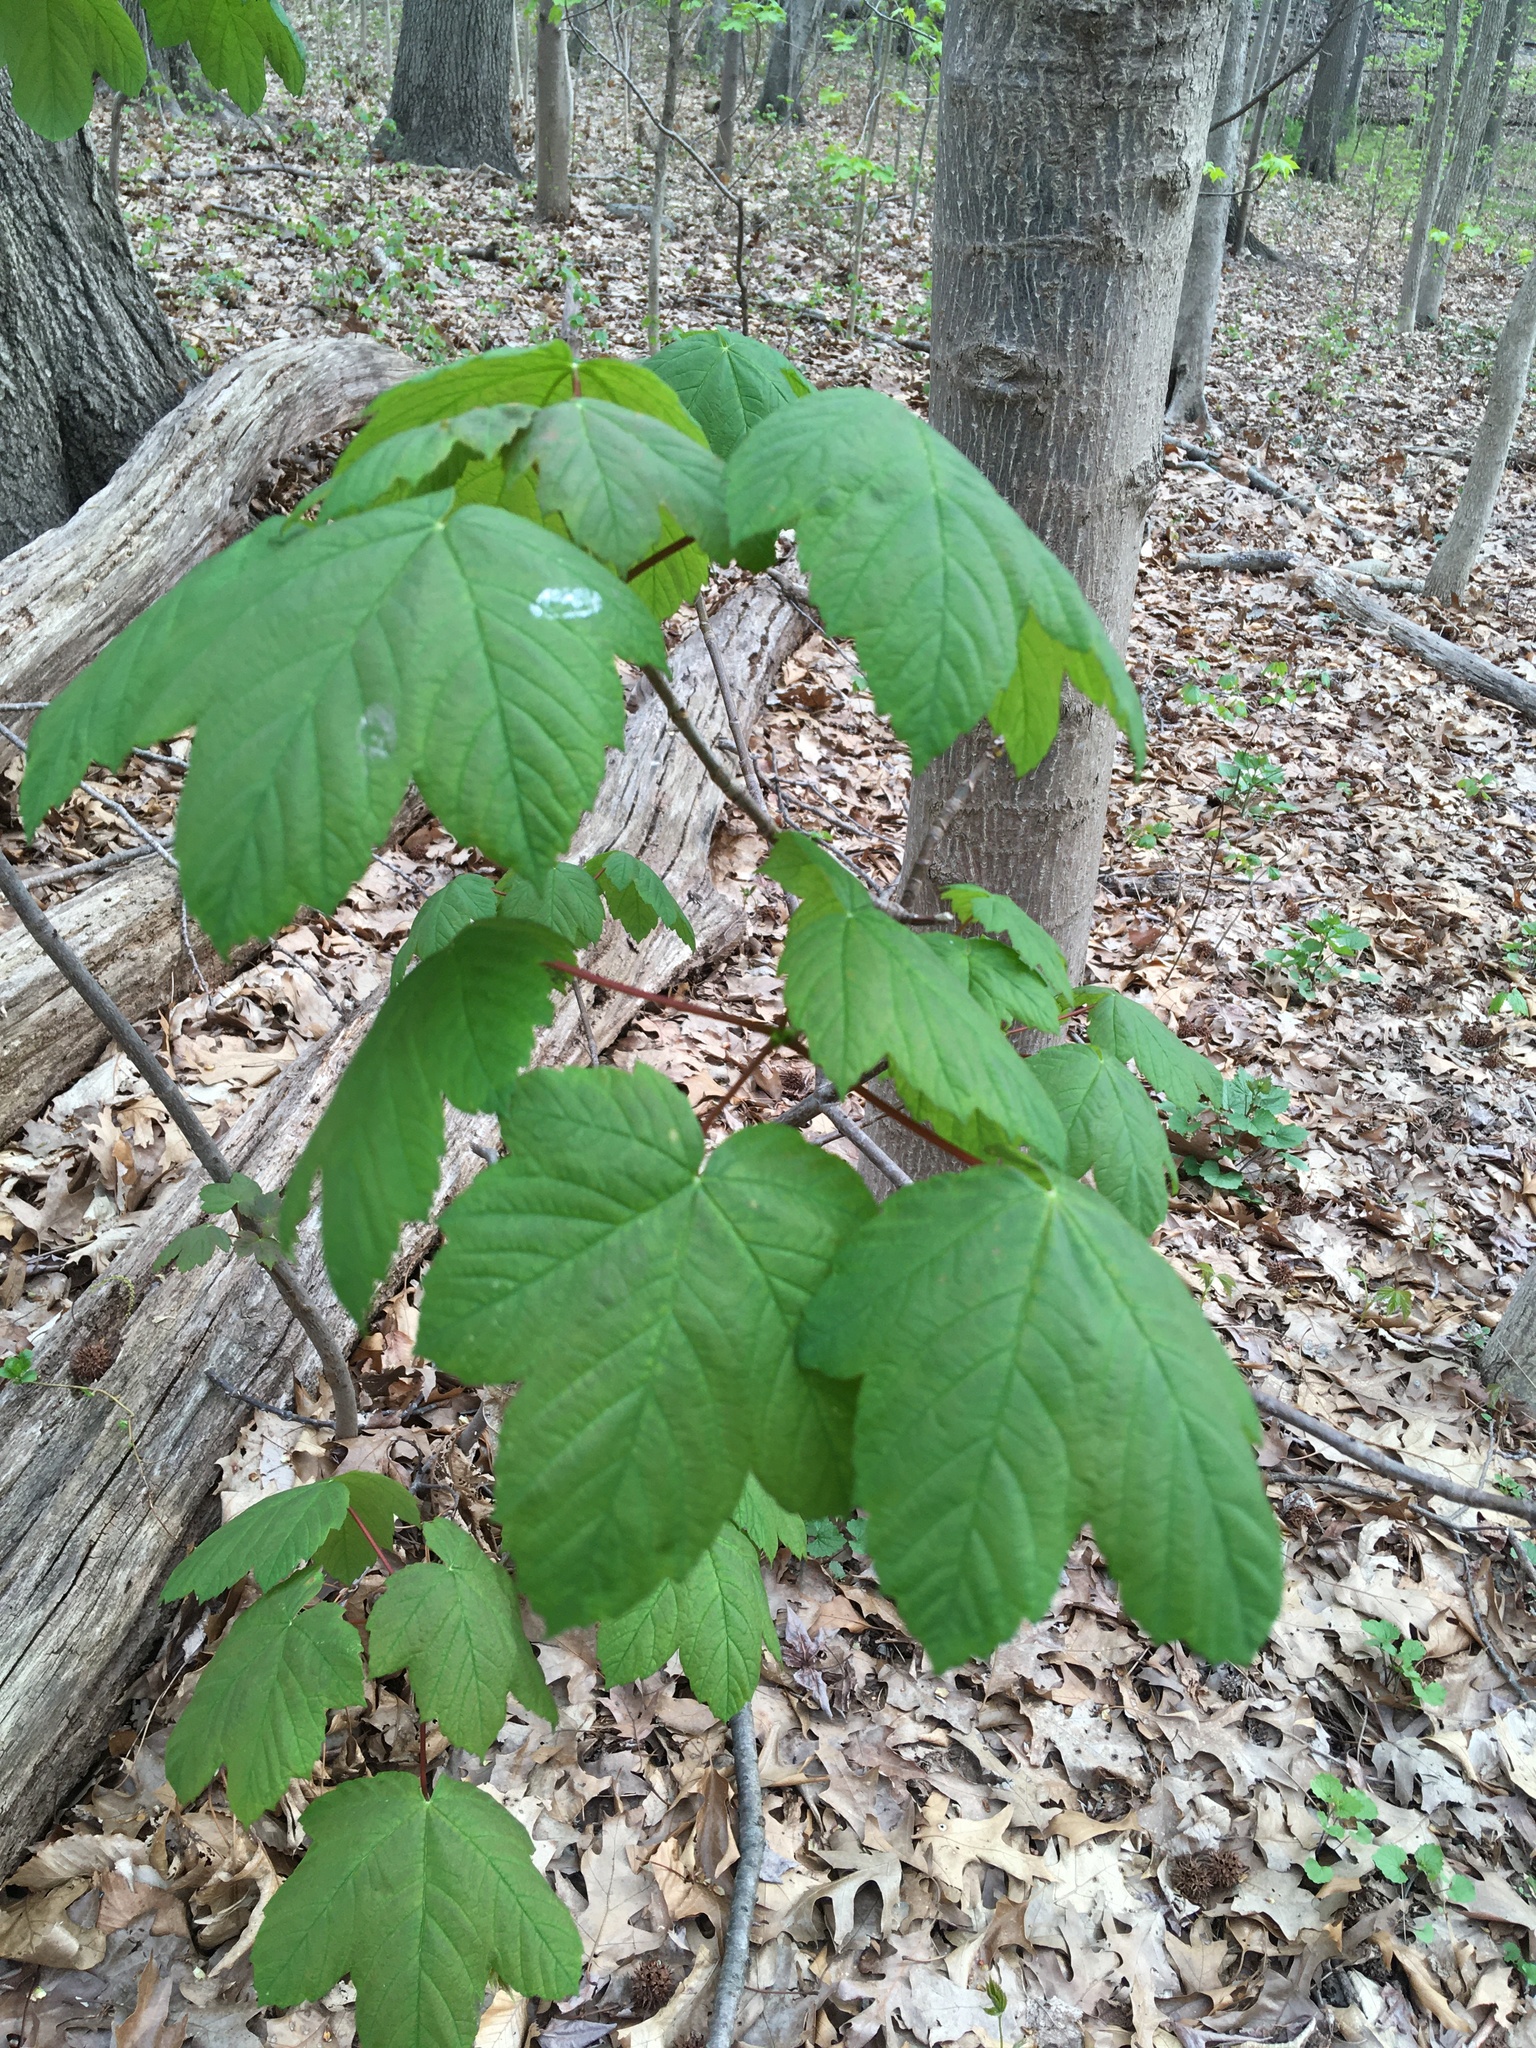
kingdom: Plantae
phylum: Tracheophyta
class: Magnoliopsida
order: Sapindales
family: Sapindaceae
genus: Acer
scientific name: Acer pseudoplatanus
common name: Sycamore
